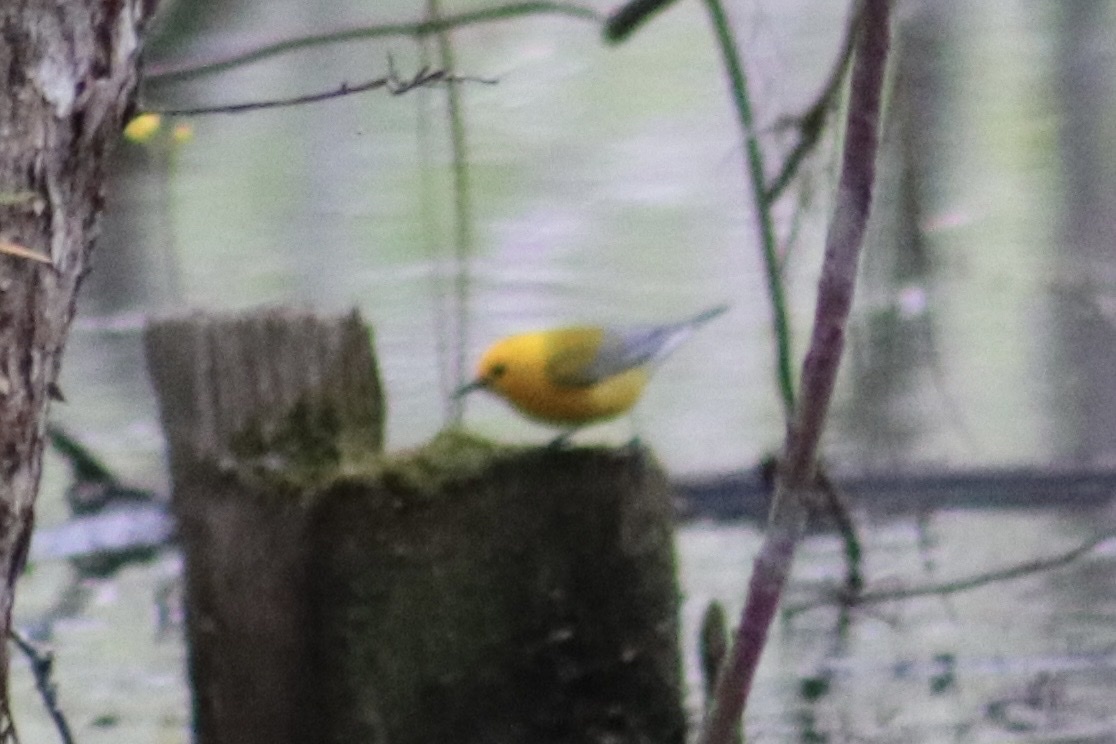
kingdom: Animalia
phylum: Chordata
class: Aves
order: Passeriformes
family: Parulidae
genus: Protonotaria
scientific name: Protonotaria citrea
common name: Prothonotary warbler
